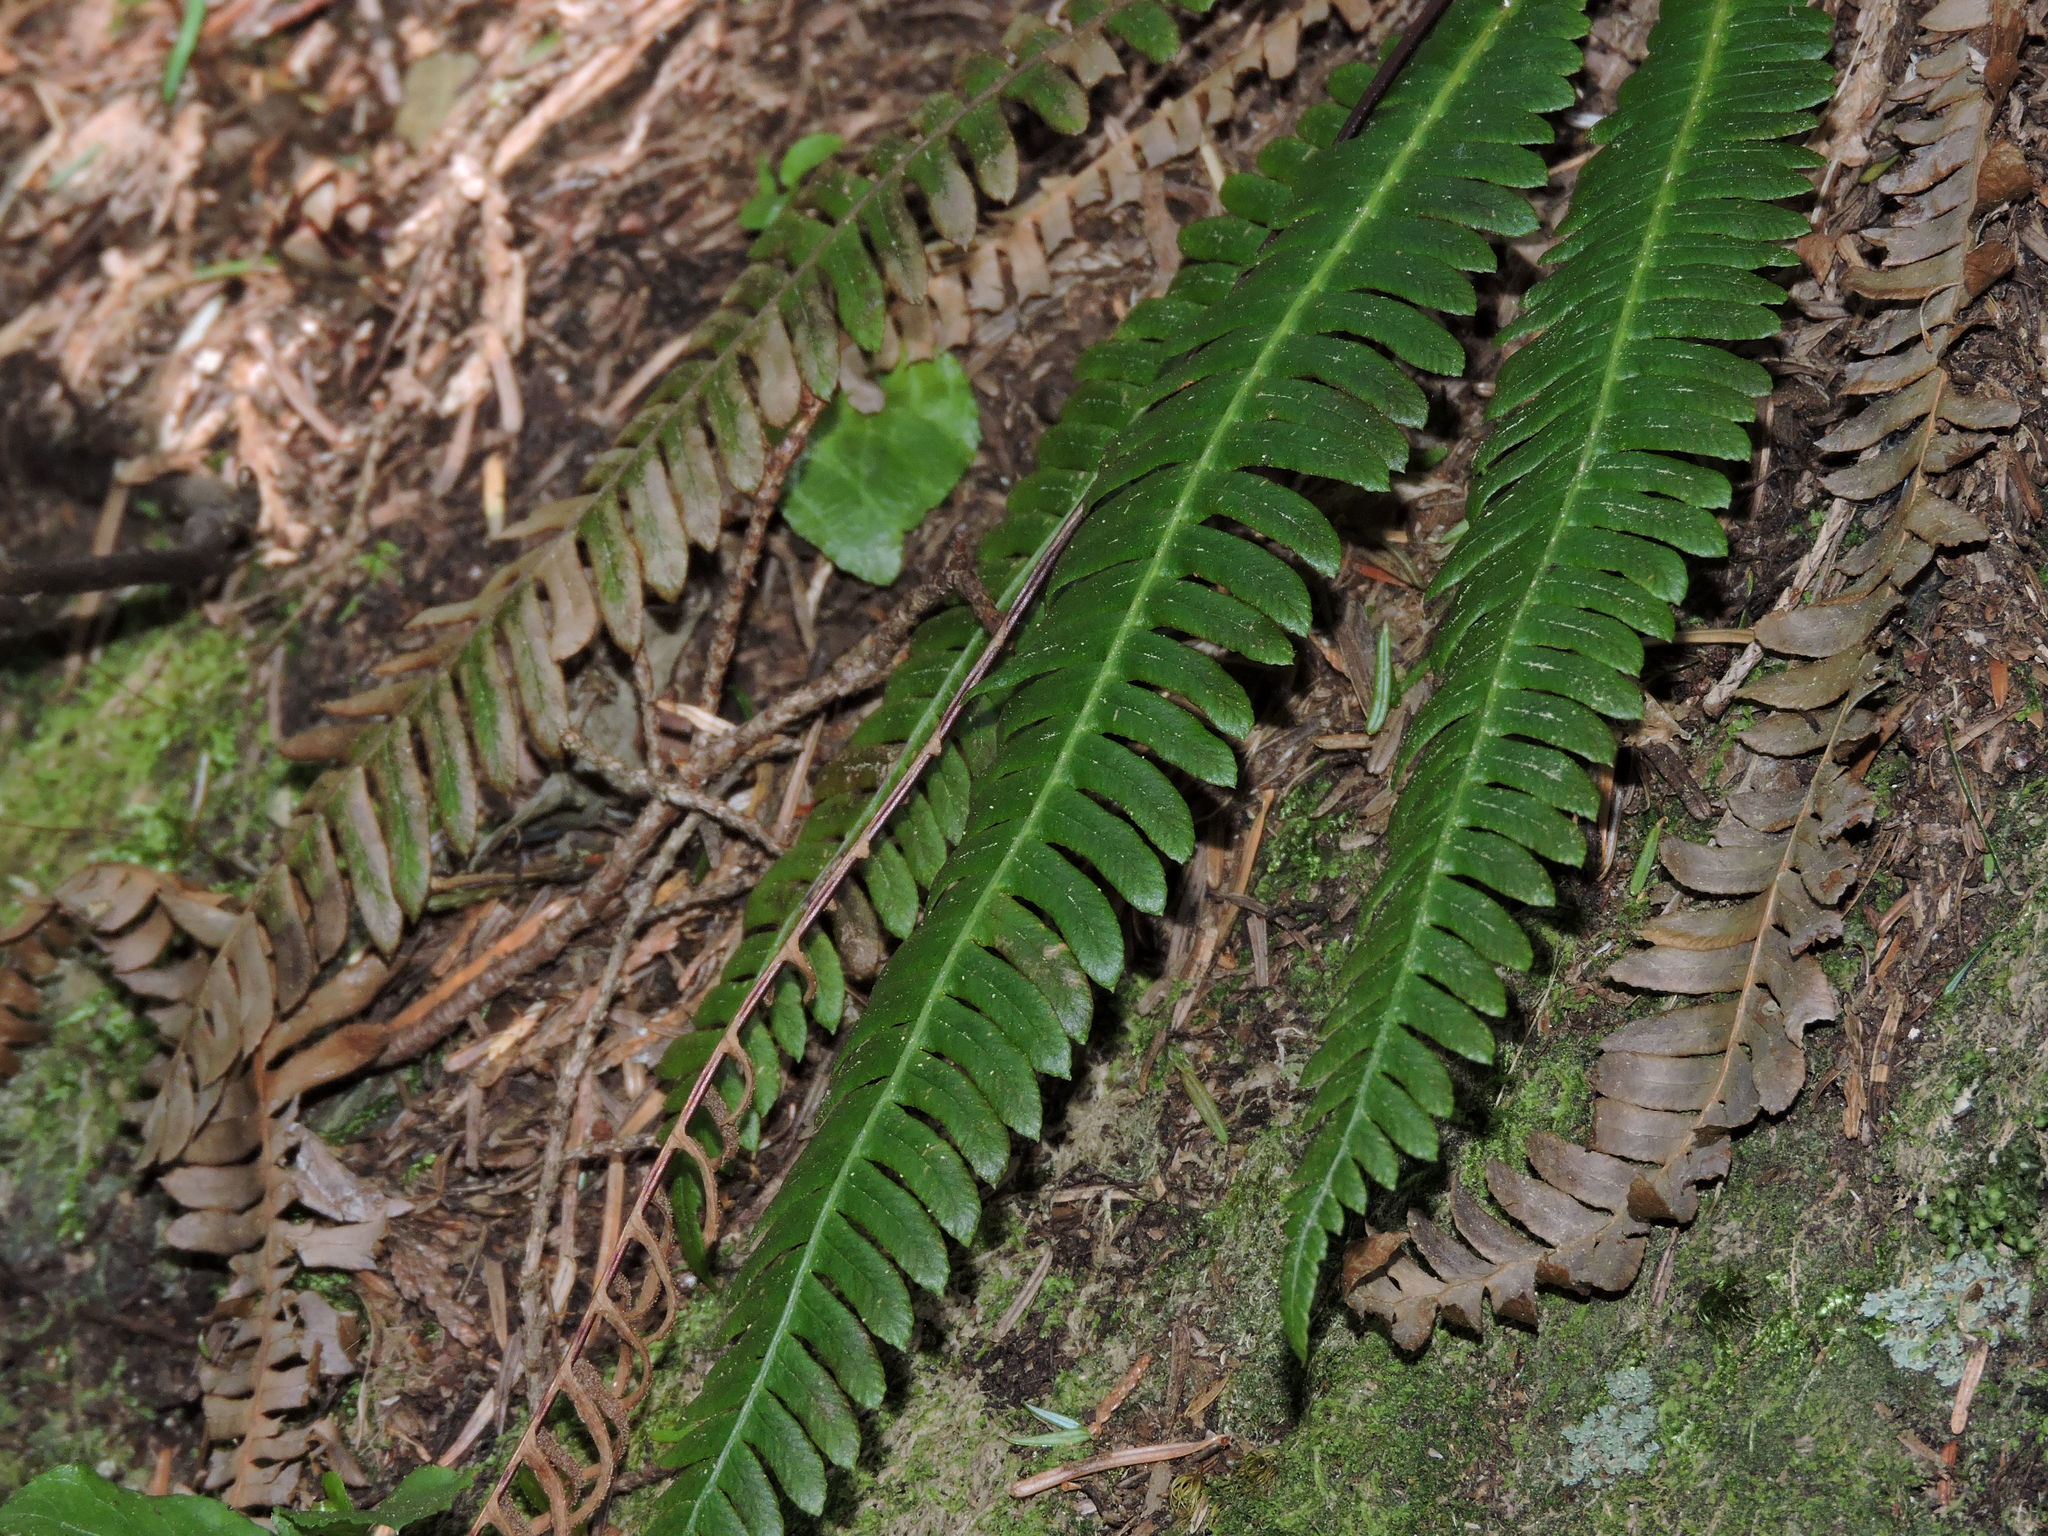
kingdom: Plantae
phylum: Tracheophyta
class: Polypodiopsida
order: Polypodiales
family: Blechnaceae
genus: Struthiopteris
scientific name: Struthiopteris spicant
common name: Deer fern
